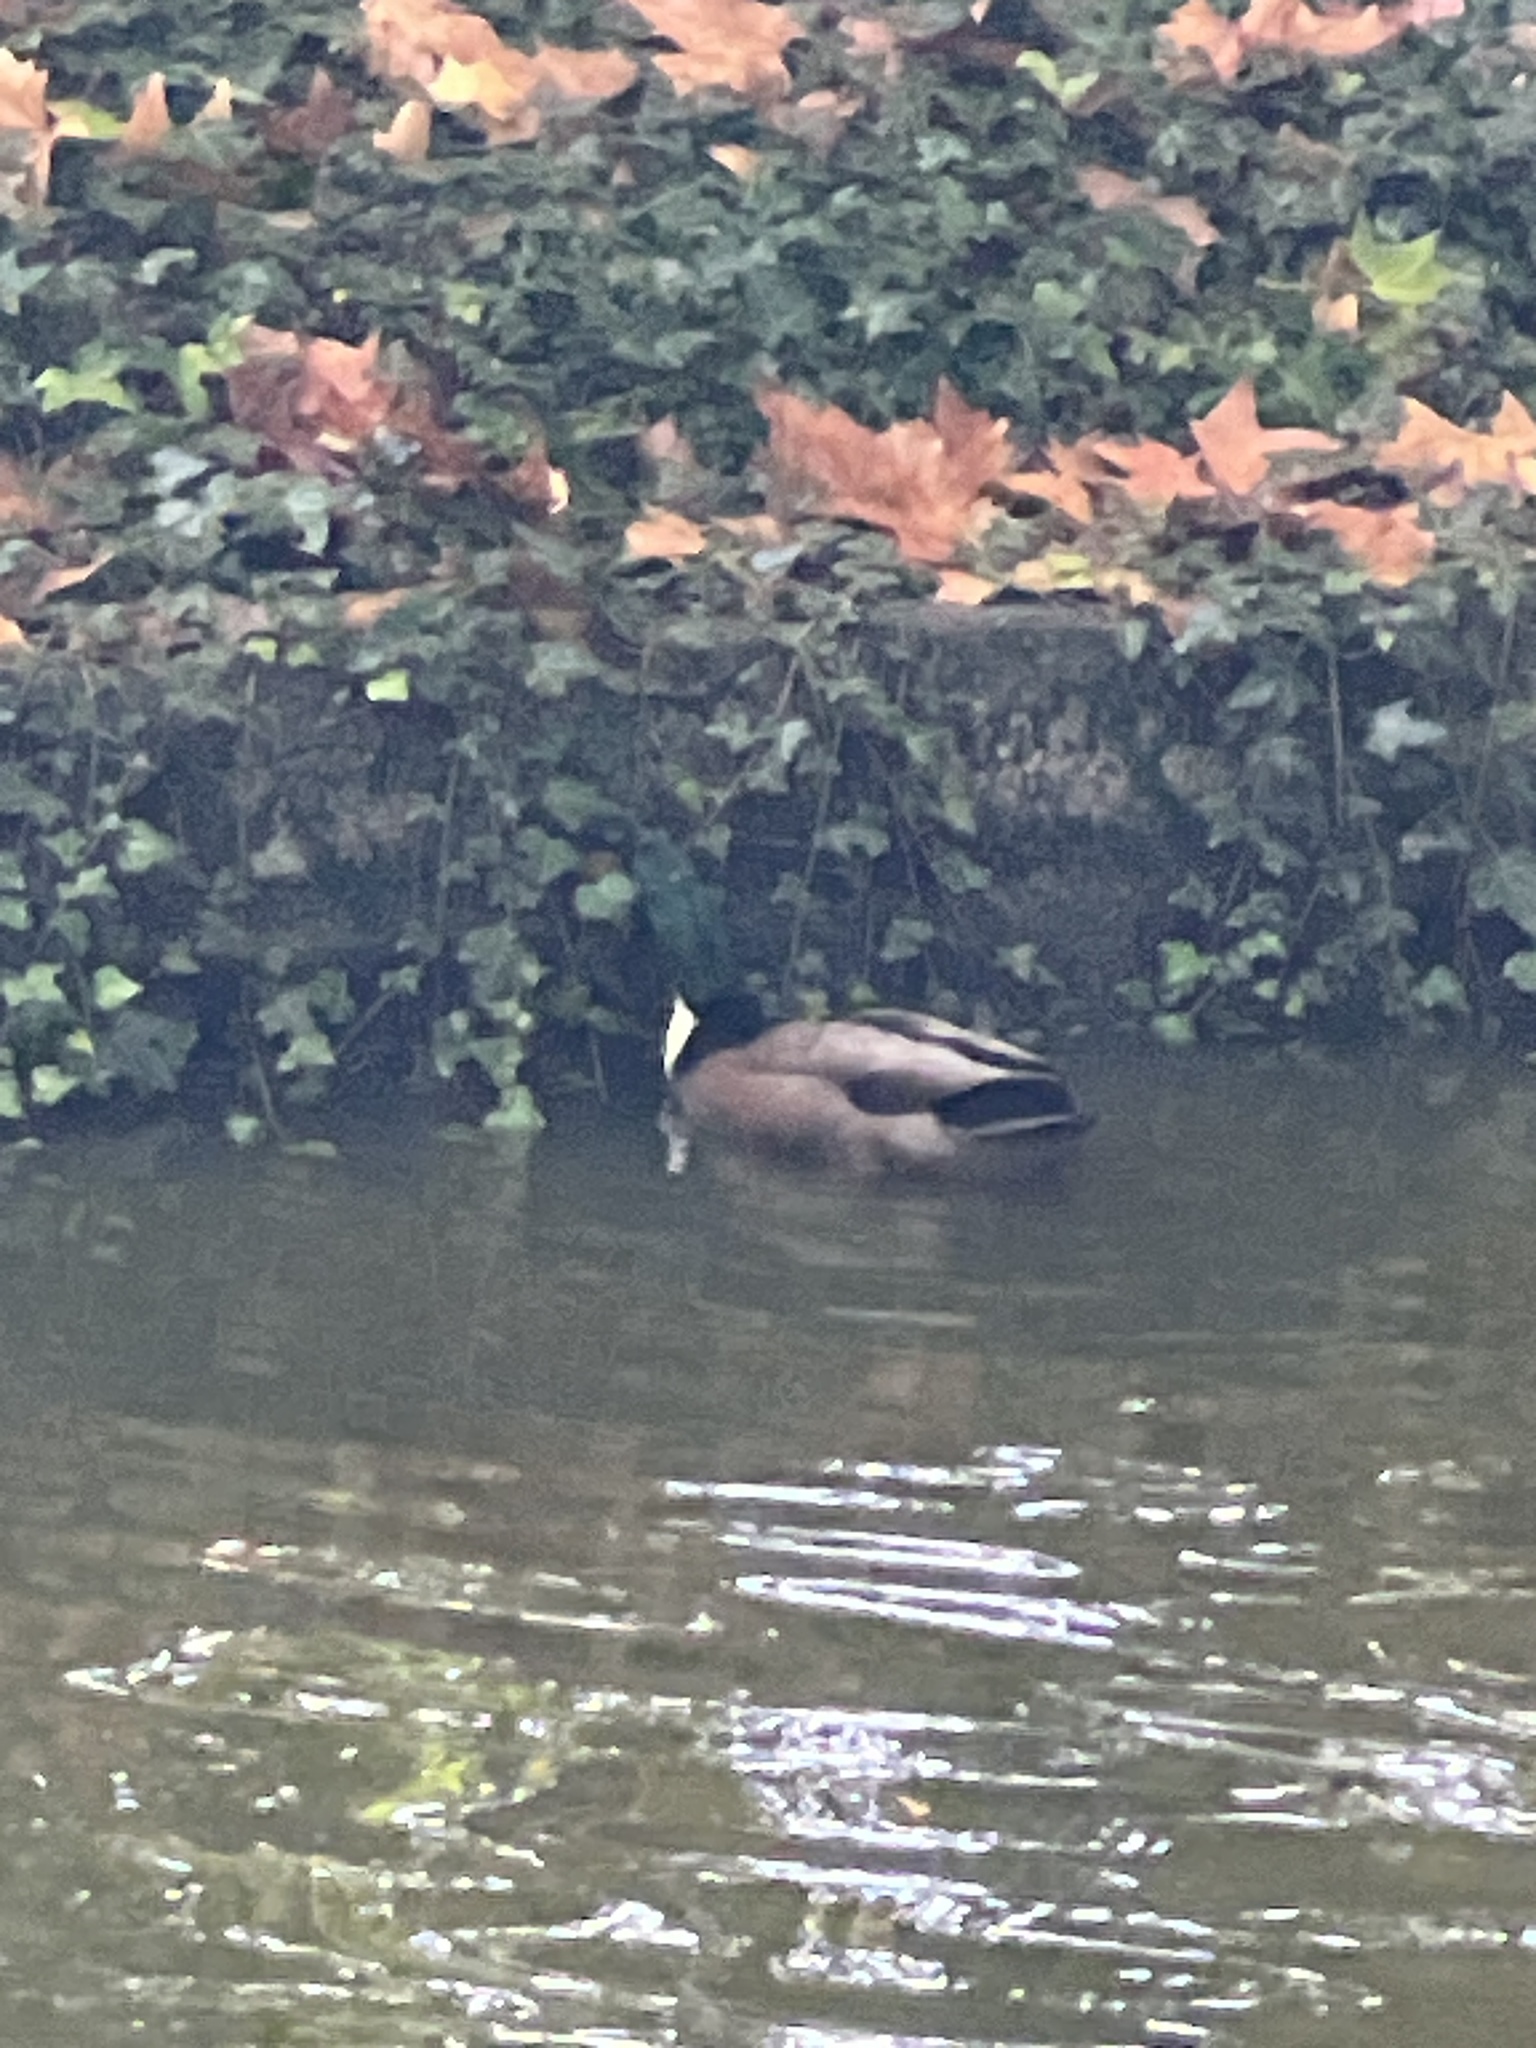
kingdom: Animalia
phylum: Chordata
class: Aves
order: Anseriformes
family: Anatidae
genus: Anas
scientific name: Anas platyrhynchos
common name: Mallard
